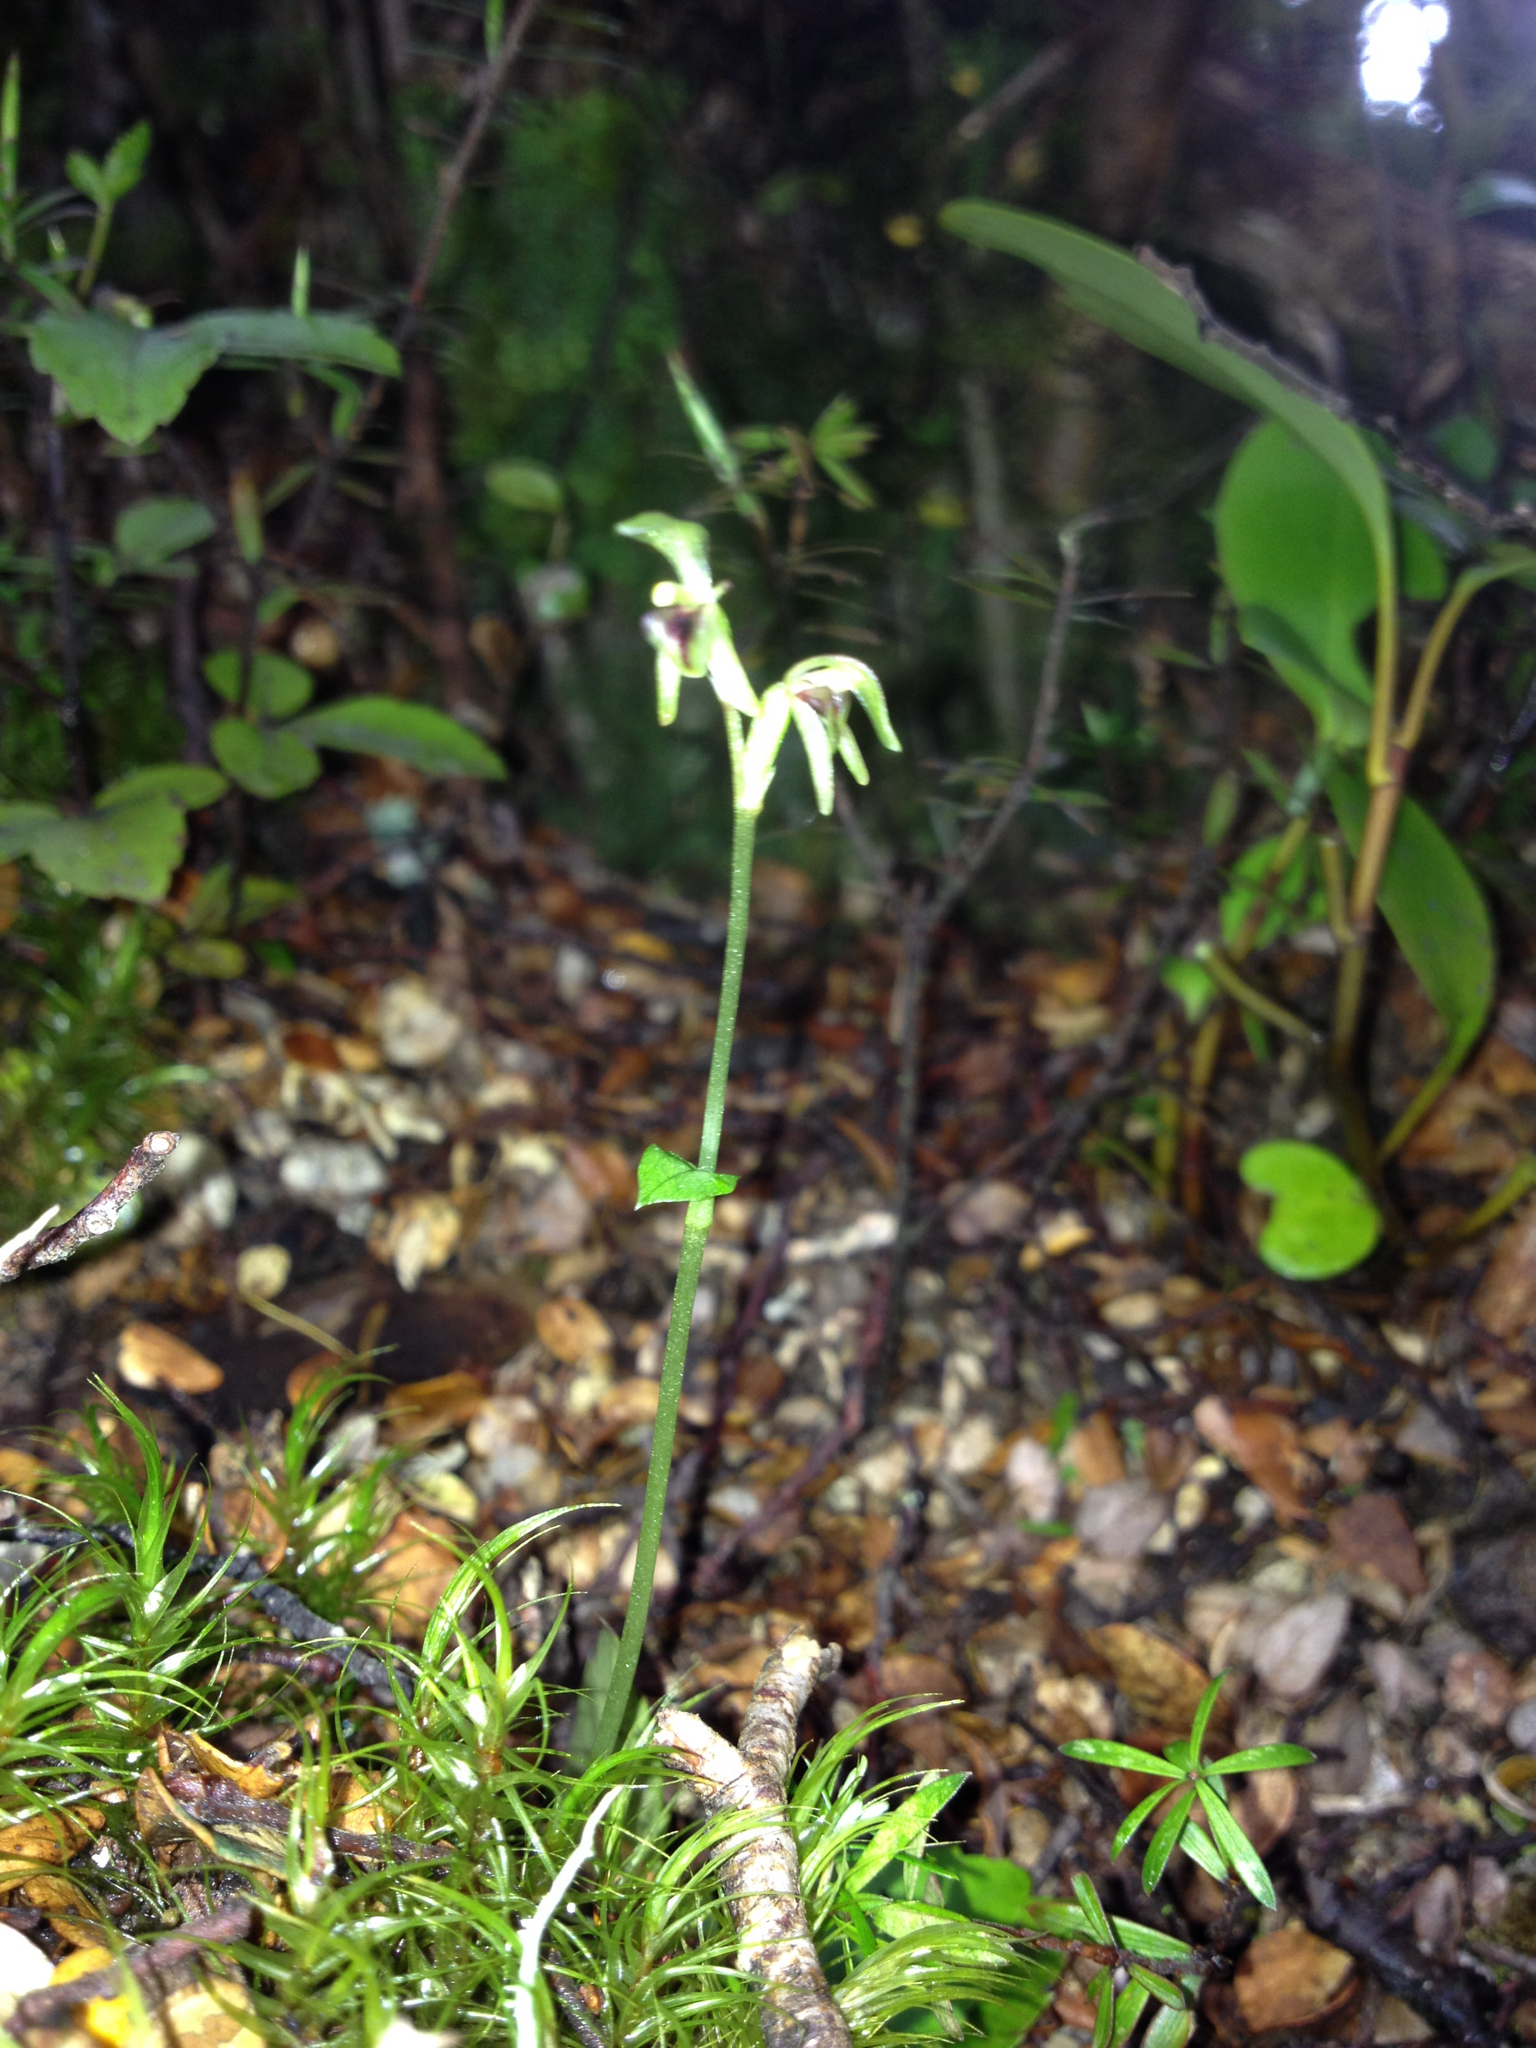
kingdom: Plantae
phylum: Tracheophyta
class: Liliopsida
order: Asparagales
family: Orchidaceae
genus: Townsonia
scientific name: Townsonia deflexa
